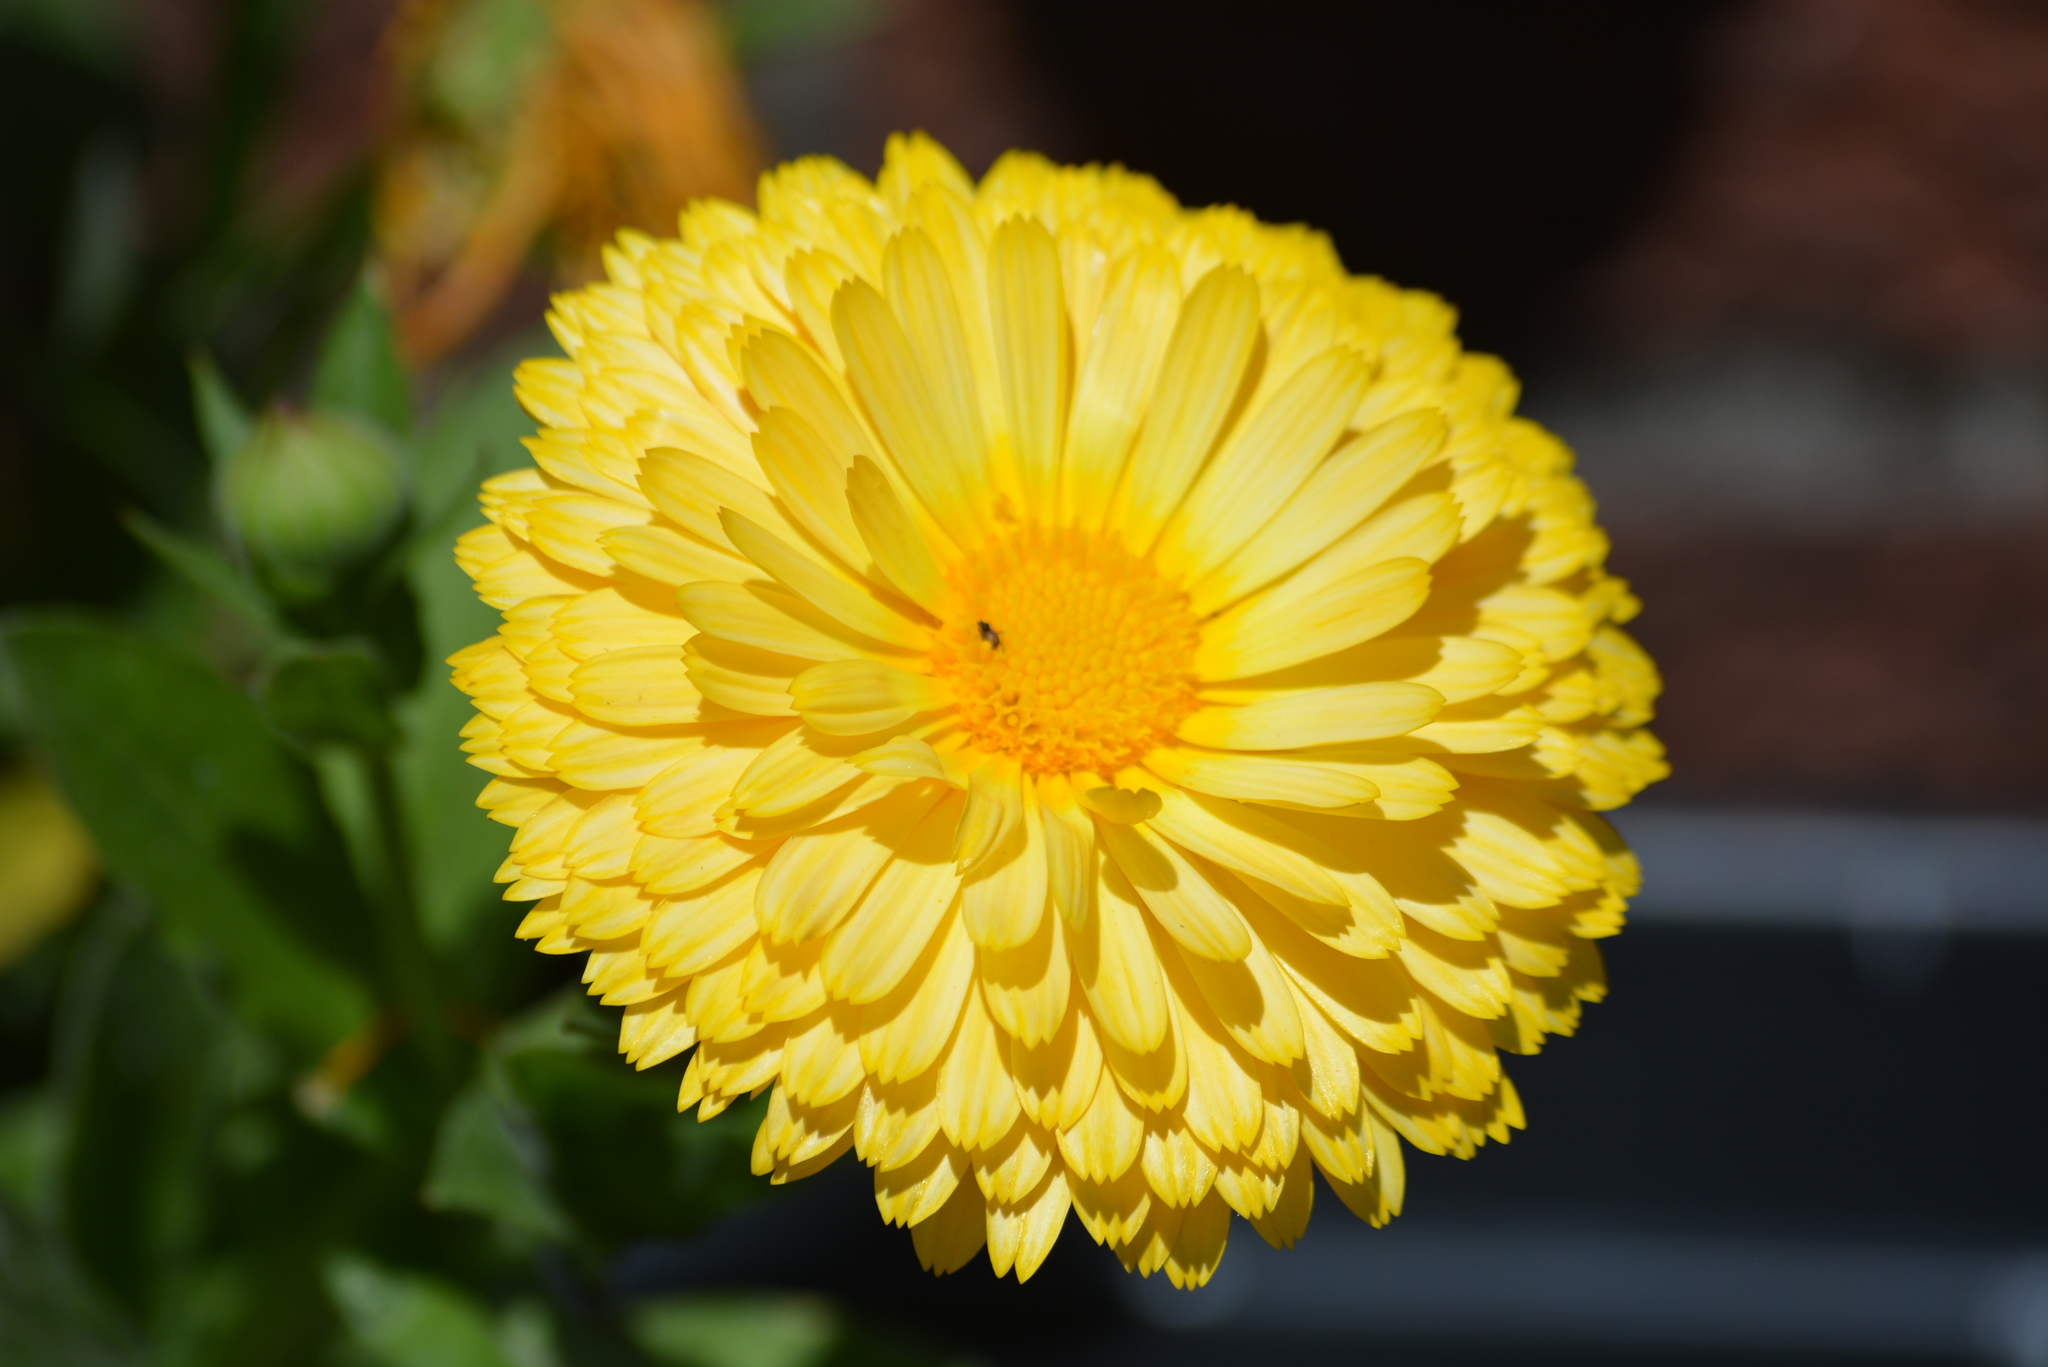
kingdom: Plantae
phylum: Tracheophyta
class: Magnoliopsida
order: Asterales
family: Asteraceae
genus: Calendula
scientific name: Calendula officinalis
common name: Pot marigold
